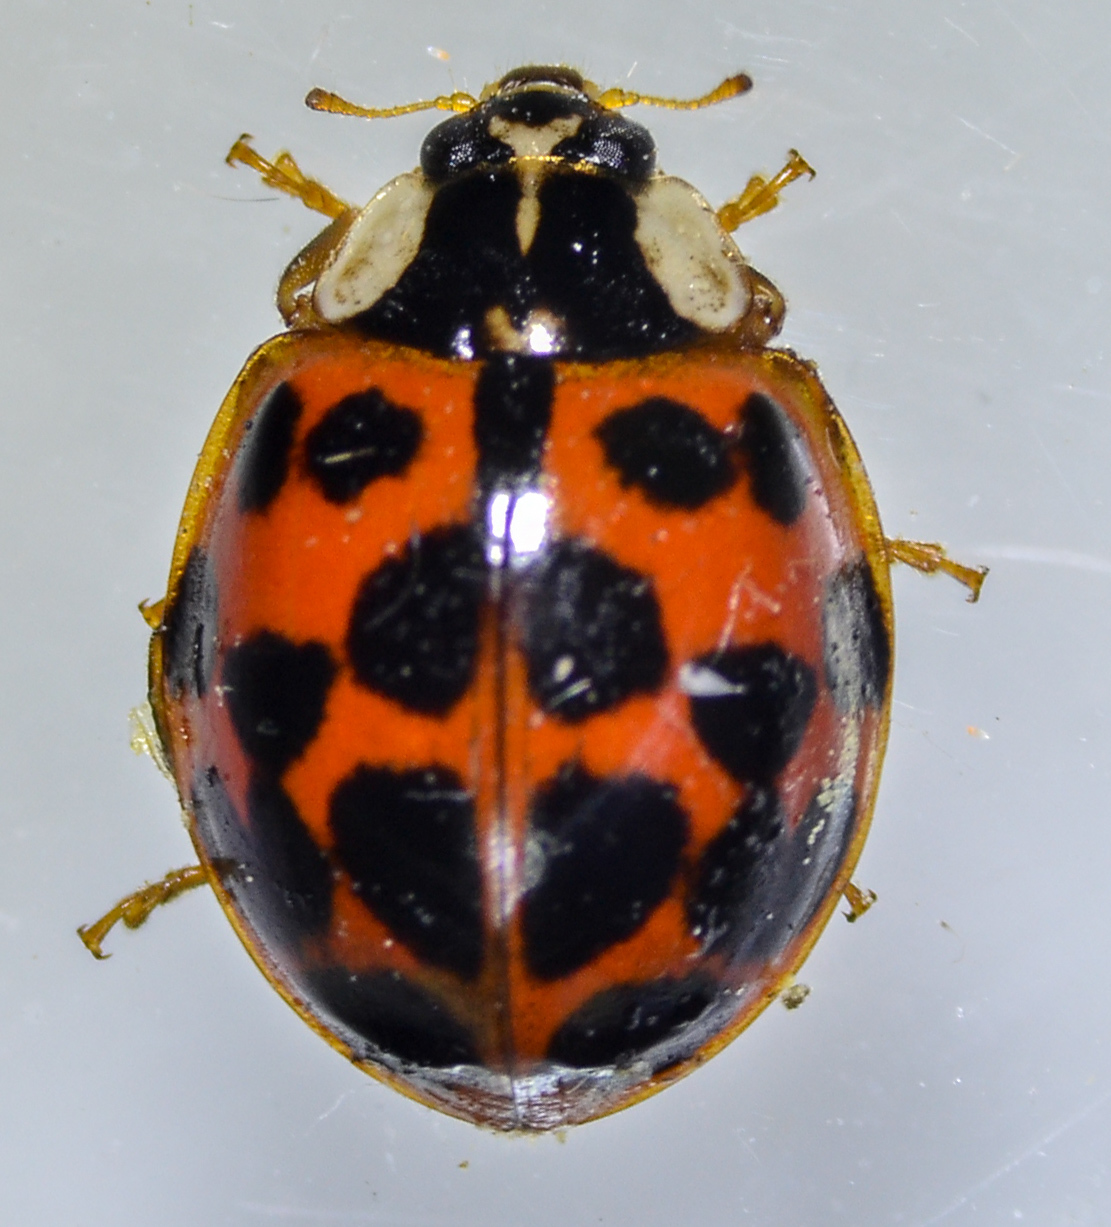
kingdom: Animalia
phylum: Arthropoda
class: Insecta
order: Coleoptera
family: Coccinellidae
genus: Harmonia
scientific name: Harmonia axyridis
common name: Harlequin ladybird
